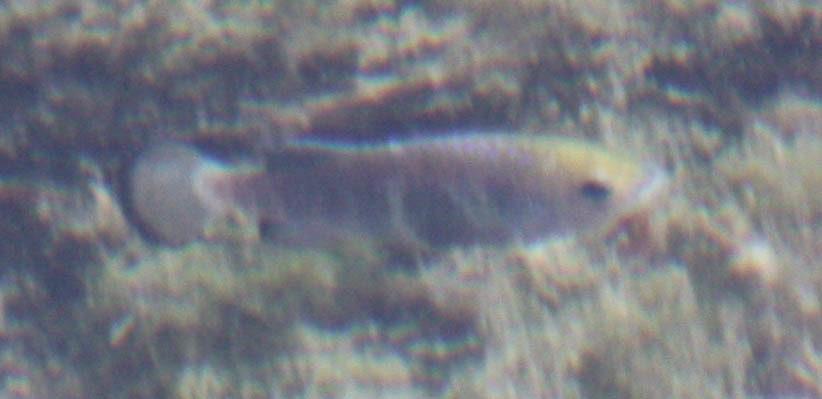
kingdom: Animalia
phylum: Chordata
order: Cyprinodontiformes
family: Cyprinodontidae
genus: Cyprinodon
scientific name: Cyprinodon nevadensis
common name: Amargosa pupfish
